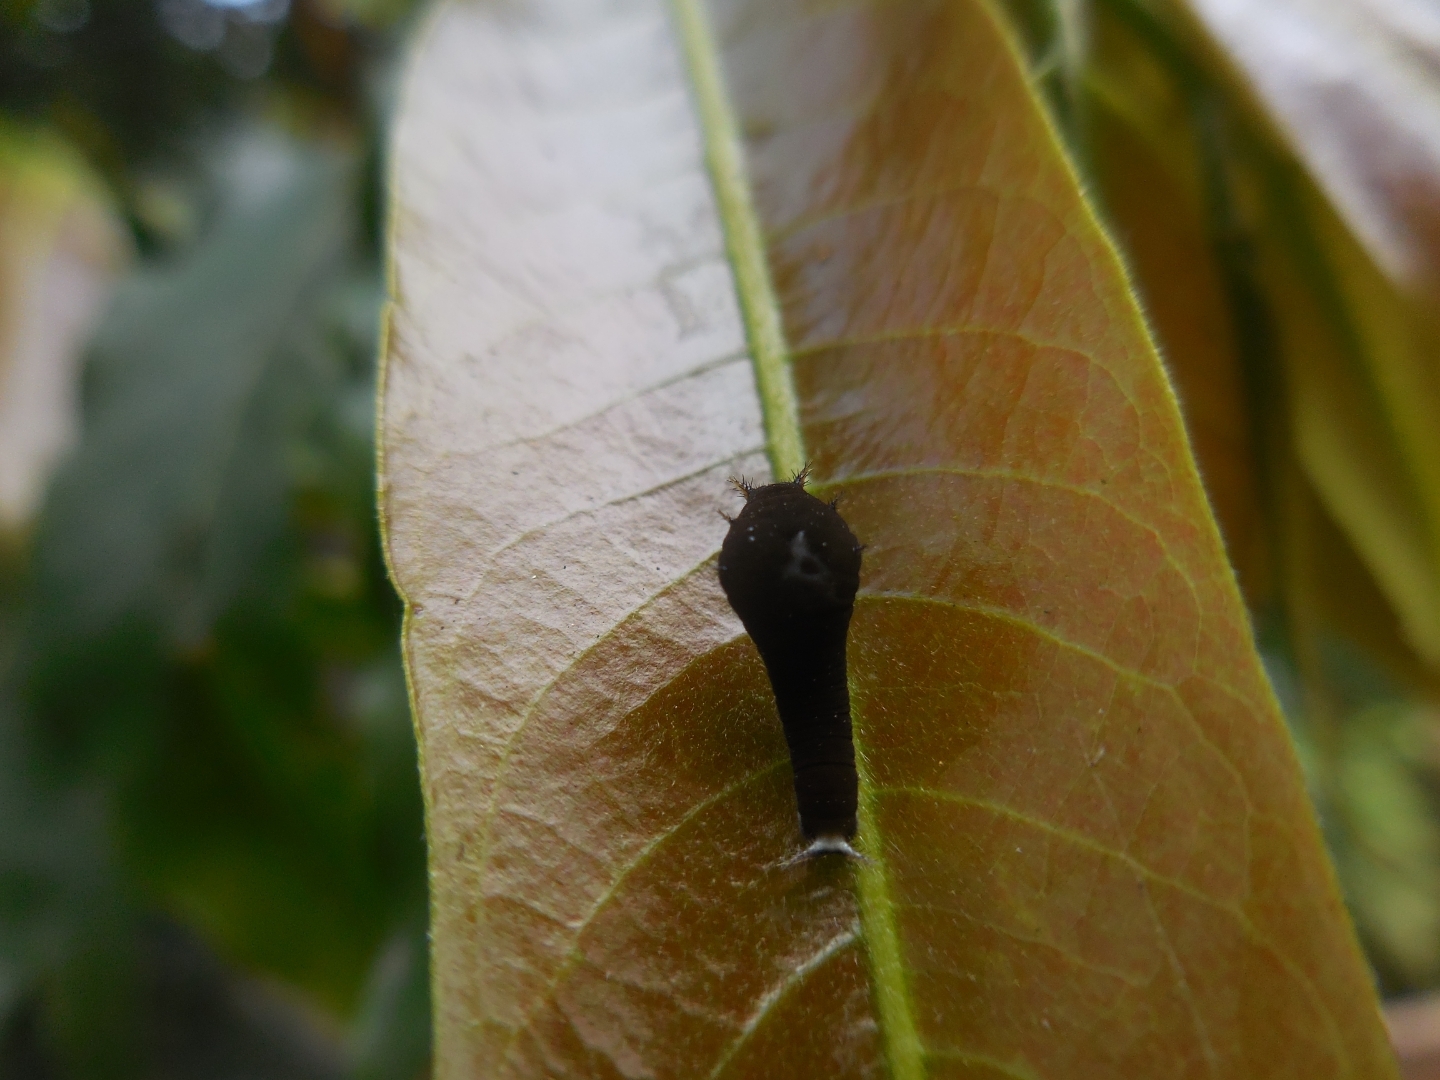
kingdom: Animalia
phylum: Arthropoda
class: Insecta
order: Lepidoptera
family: Papilionidae
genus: Graphium
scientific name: Graphium agamemnon
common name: Tailed jay
